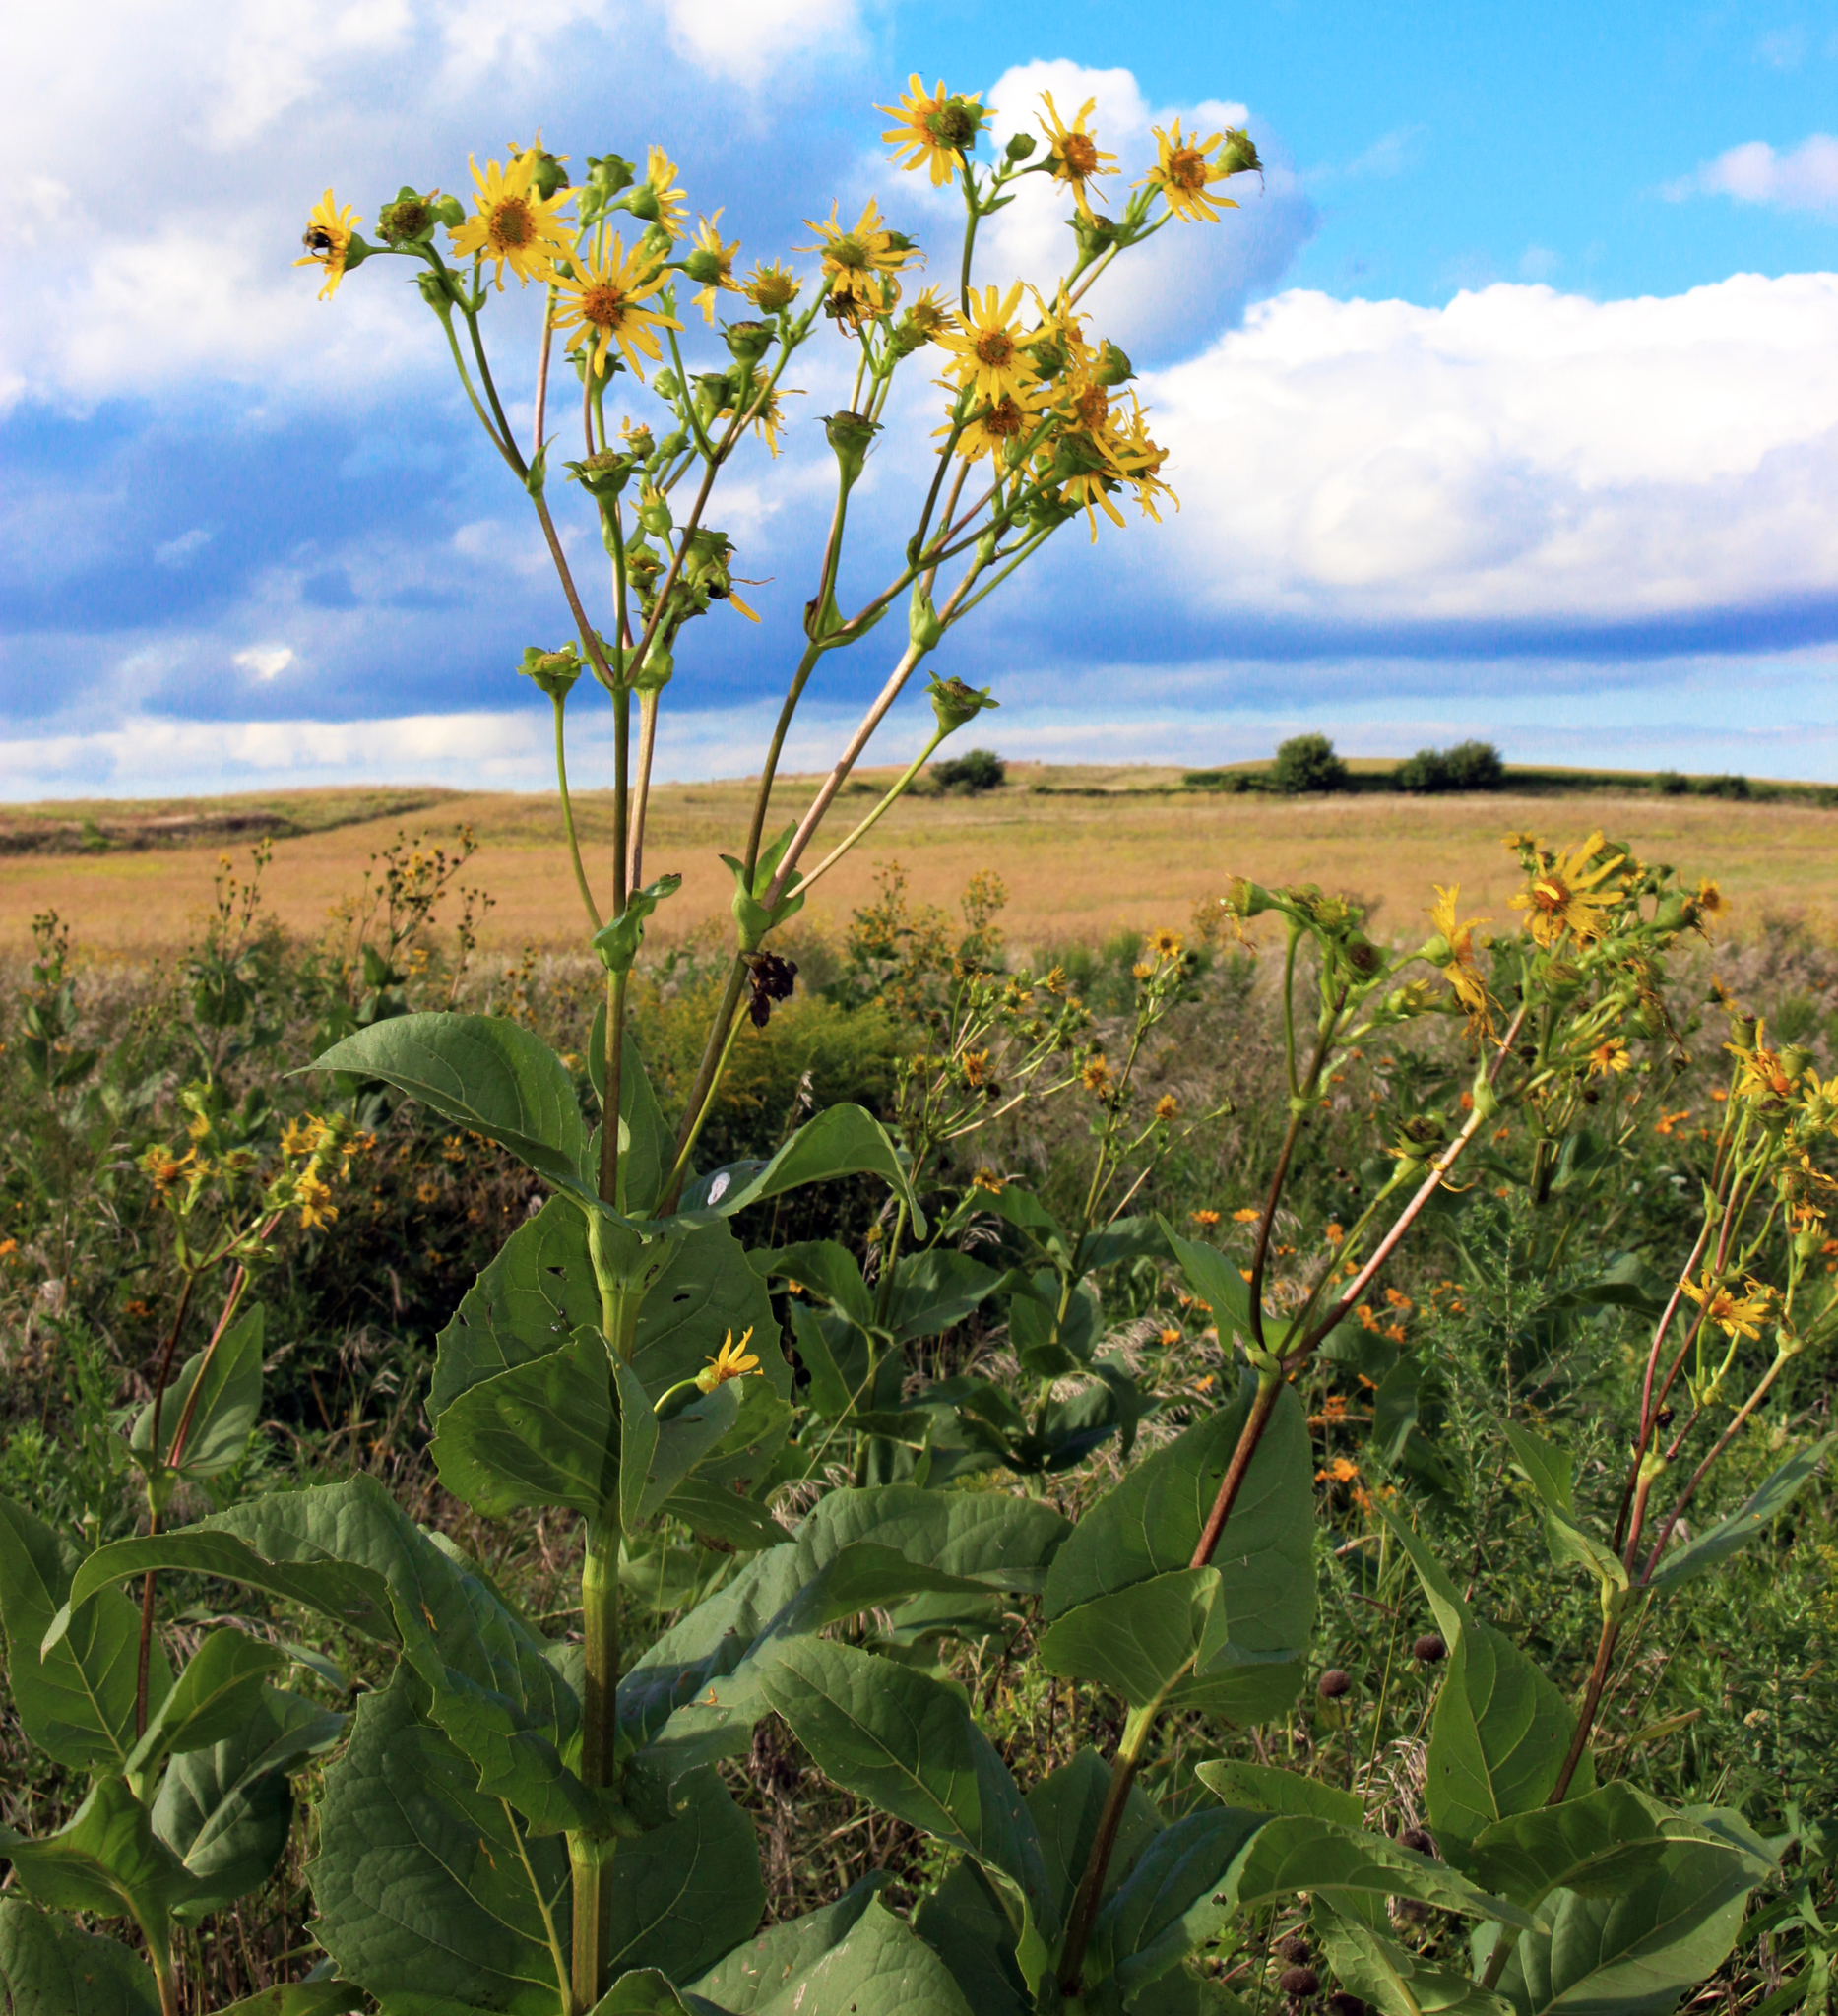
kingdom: Plantae
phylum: Tracheophyta
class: Magnoliopsida
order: Asterales
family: Asteraceae
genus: Silphium
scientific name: Silphium perfoliatum
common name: Cup-plant
